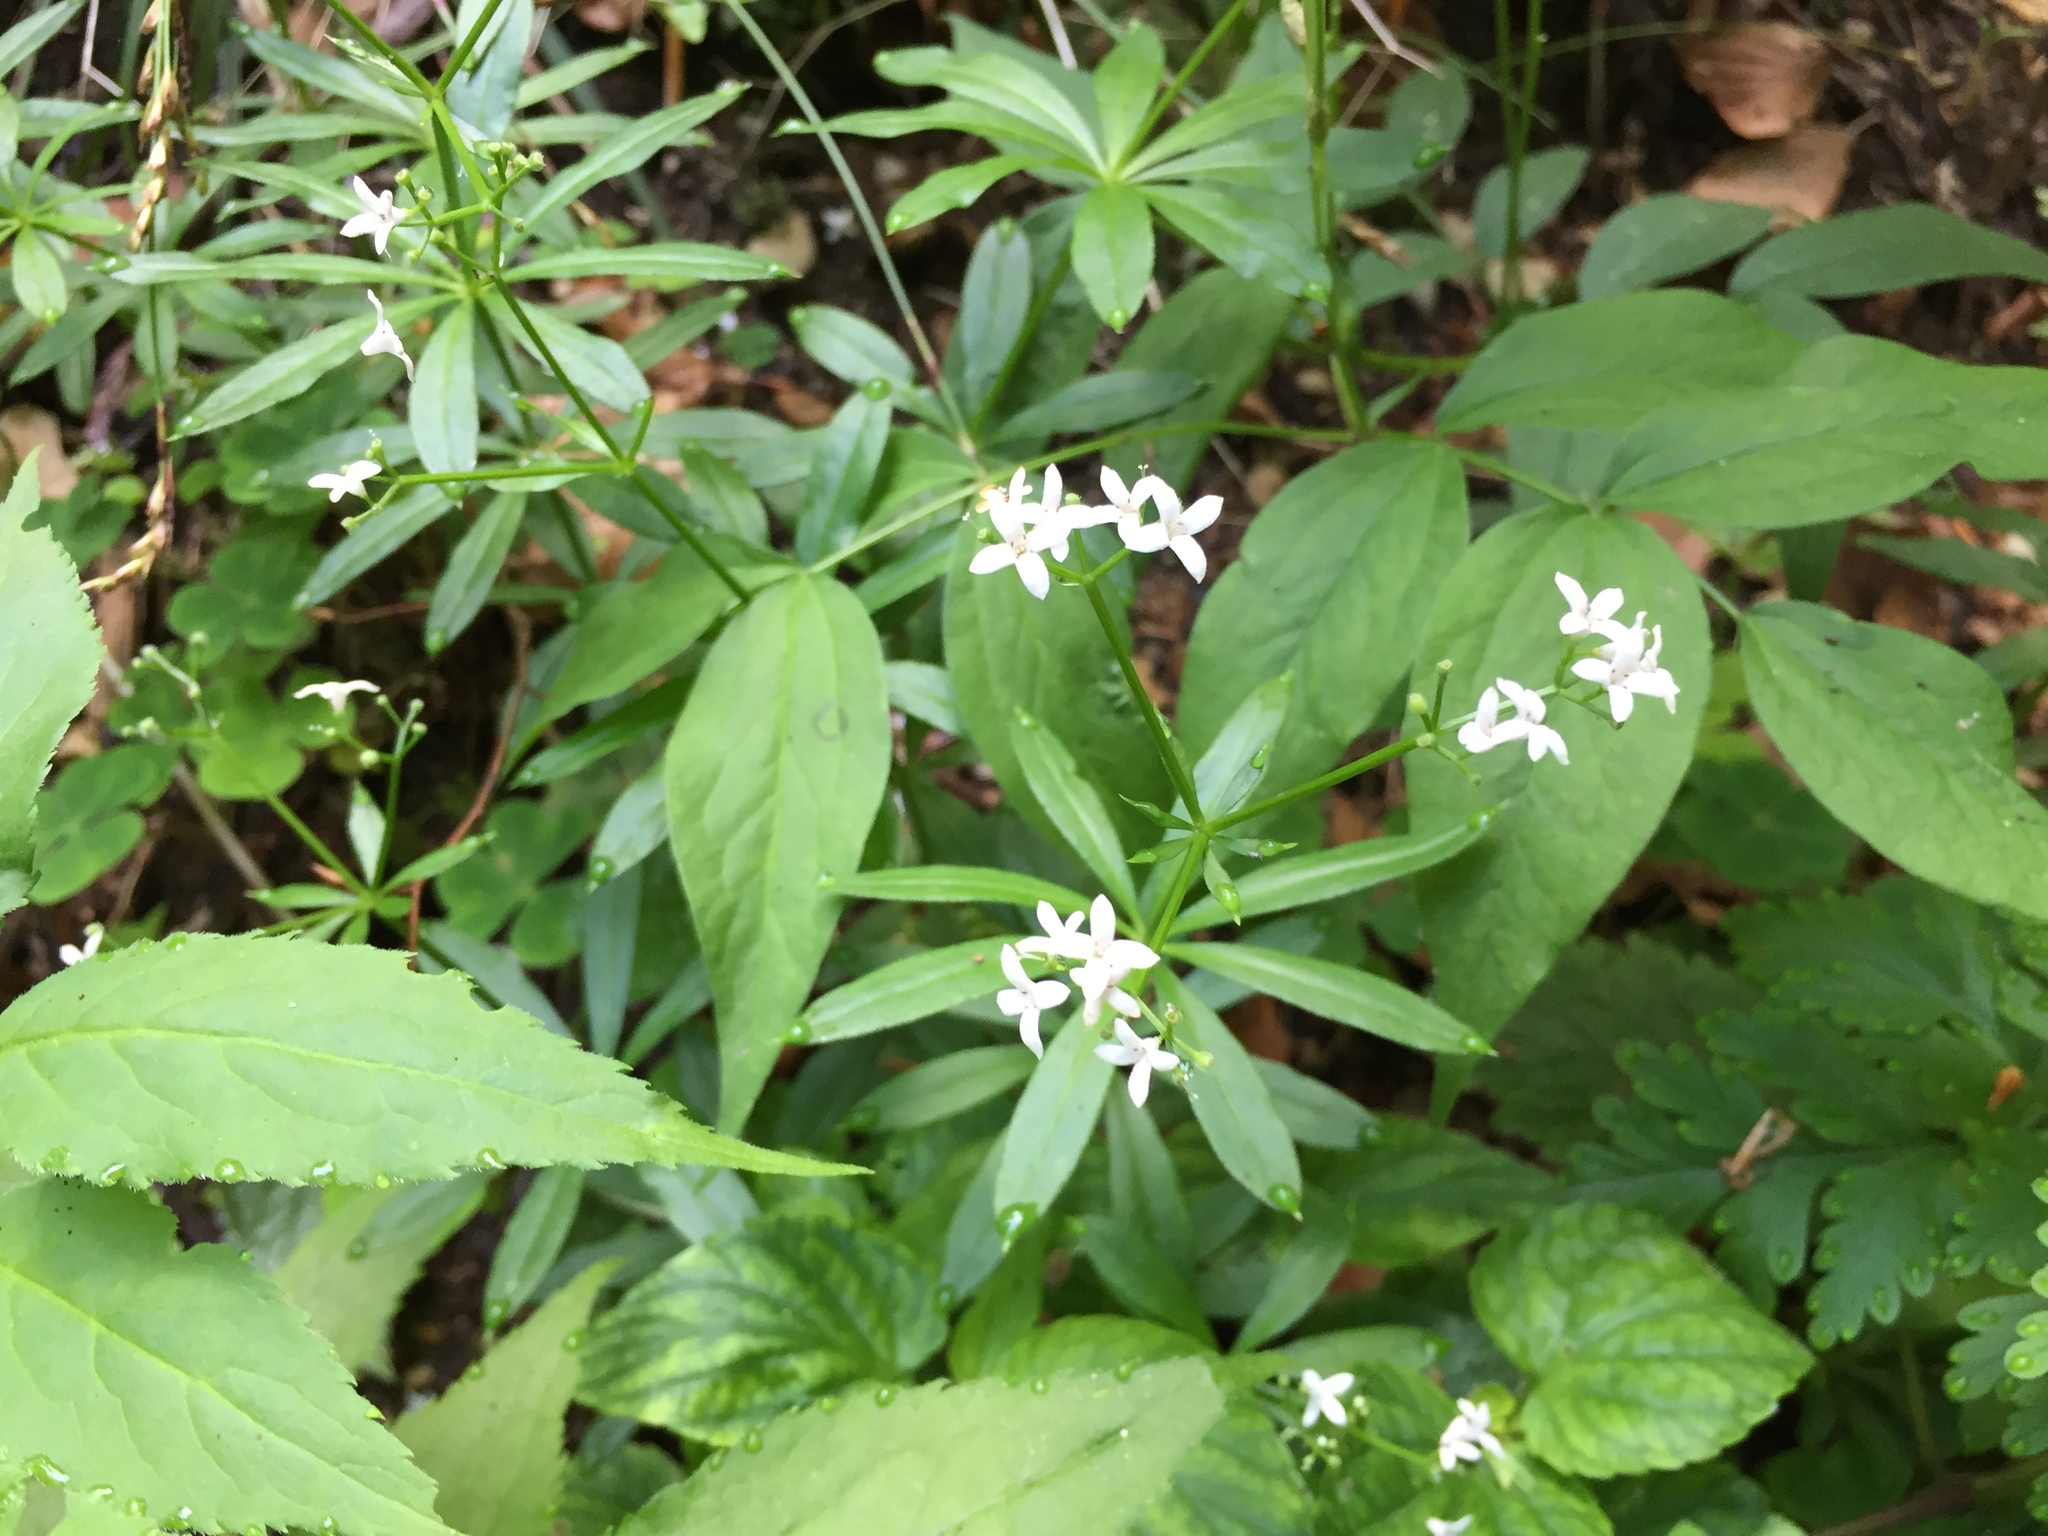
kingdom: Plantae
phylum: Tracheophyta
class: Magnoliopsida
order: Gentianales
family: Rubiaceae
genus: Galium
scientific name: Galium odoratum
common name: Sweet woodruff
